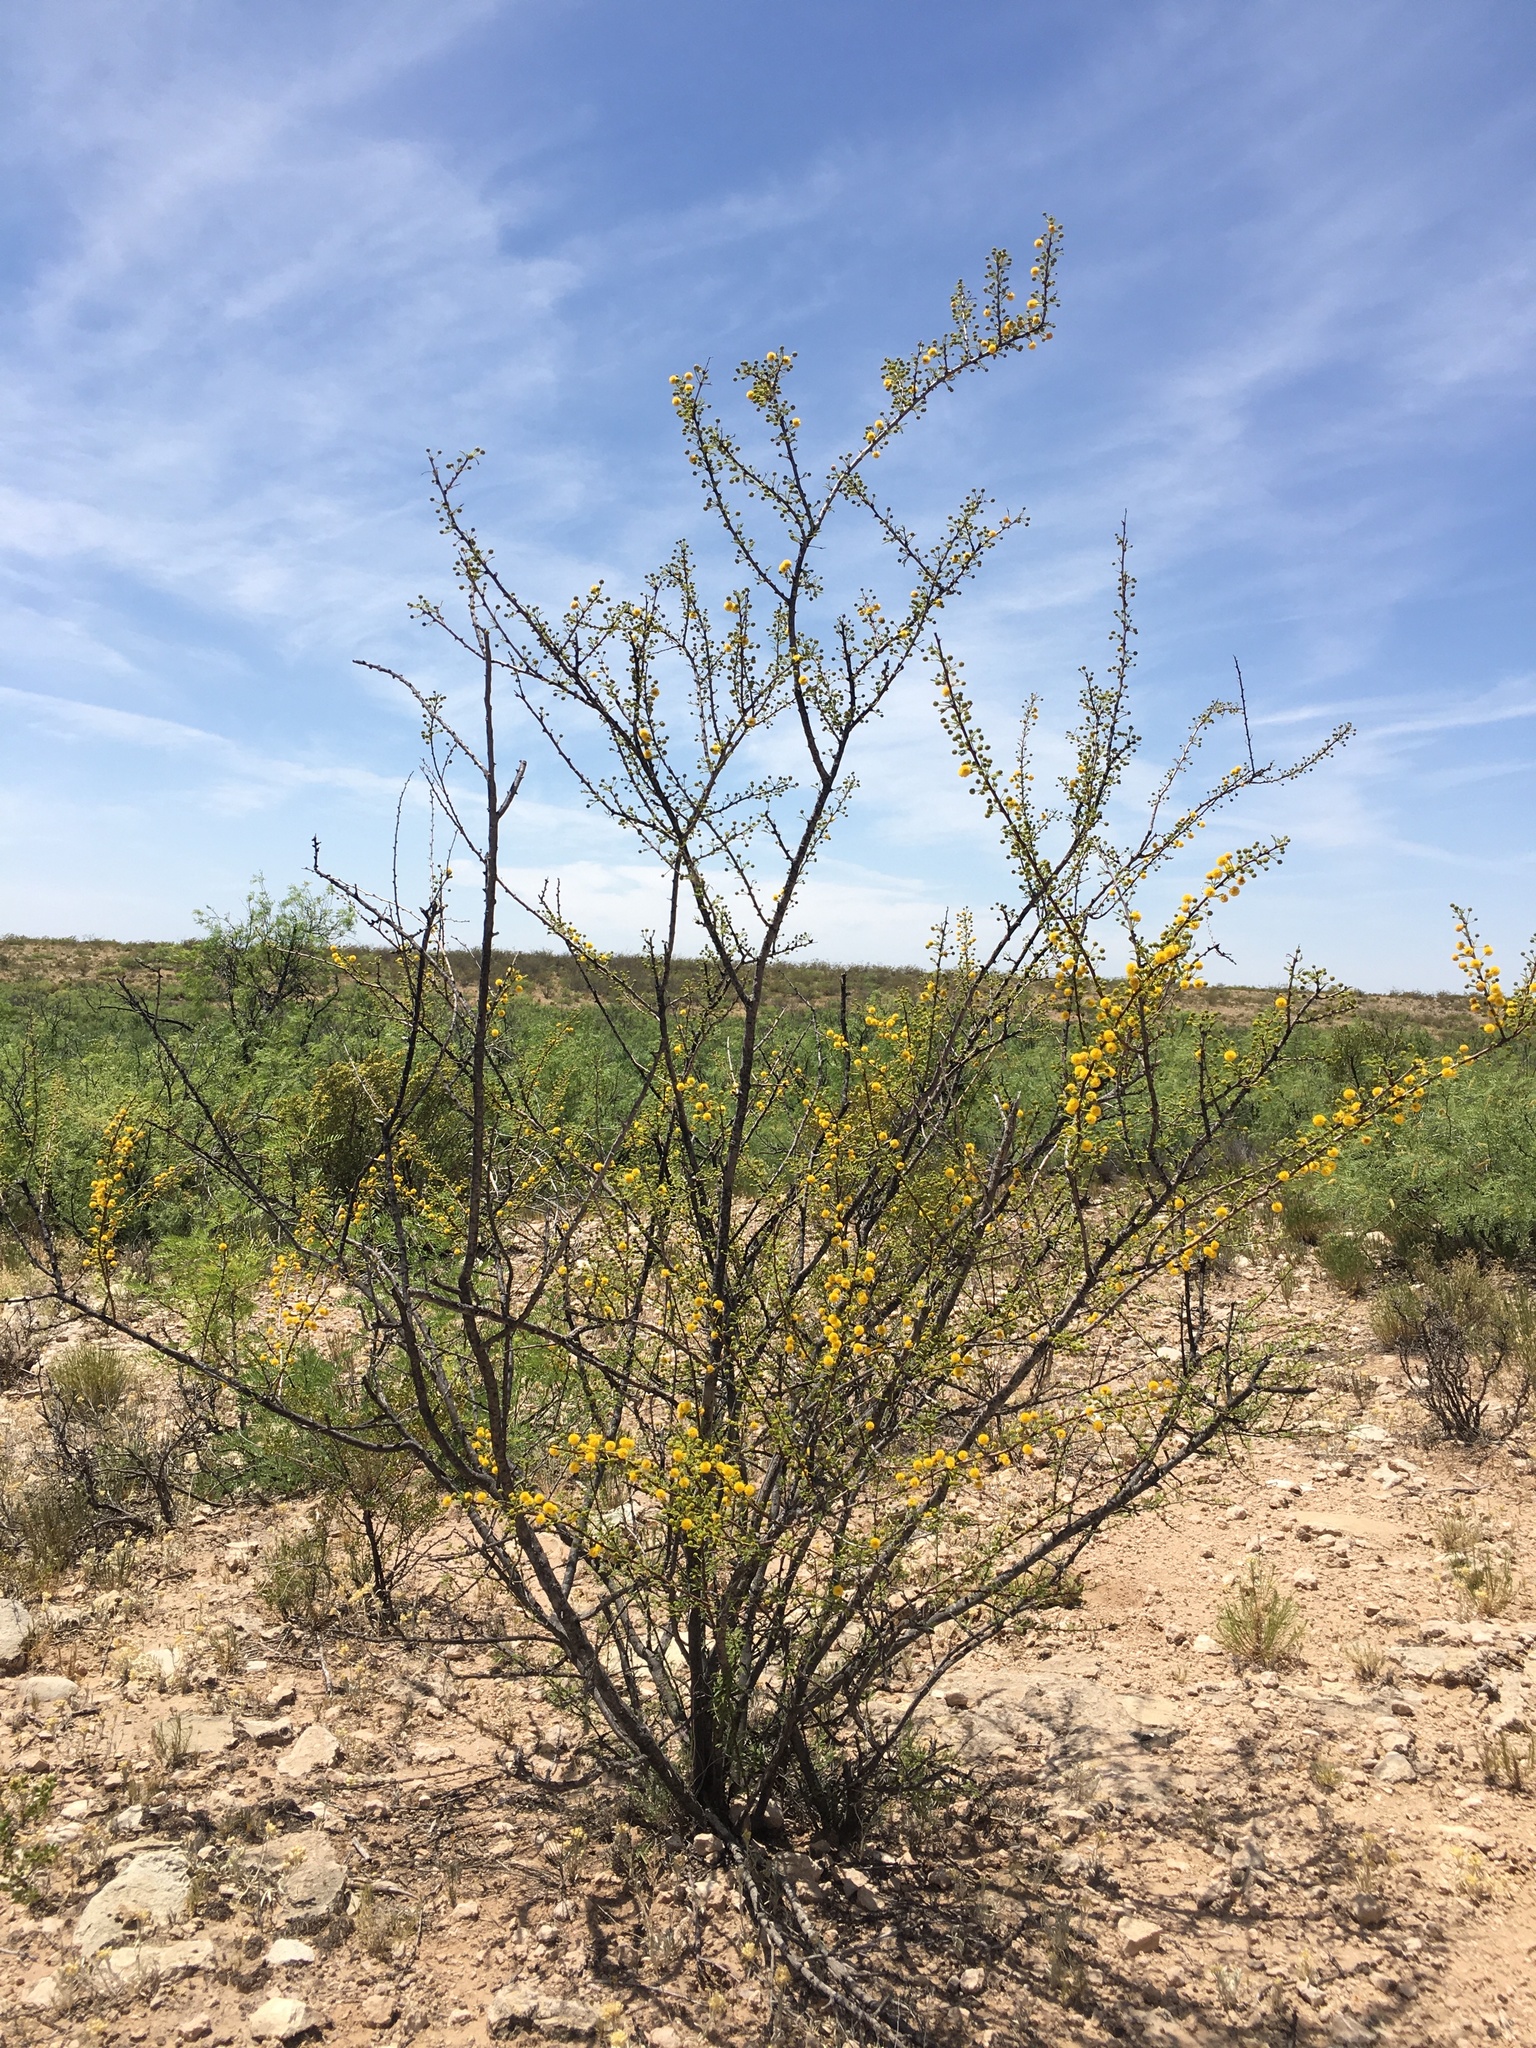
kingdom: Plantae
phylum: Tracheophyta
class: Magnoliopsida
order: Fabales
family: Fabaceae
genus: Vachellia
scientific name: Vachellia vernicosa
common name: Viscid acacia
